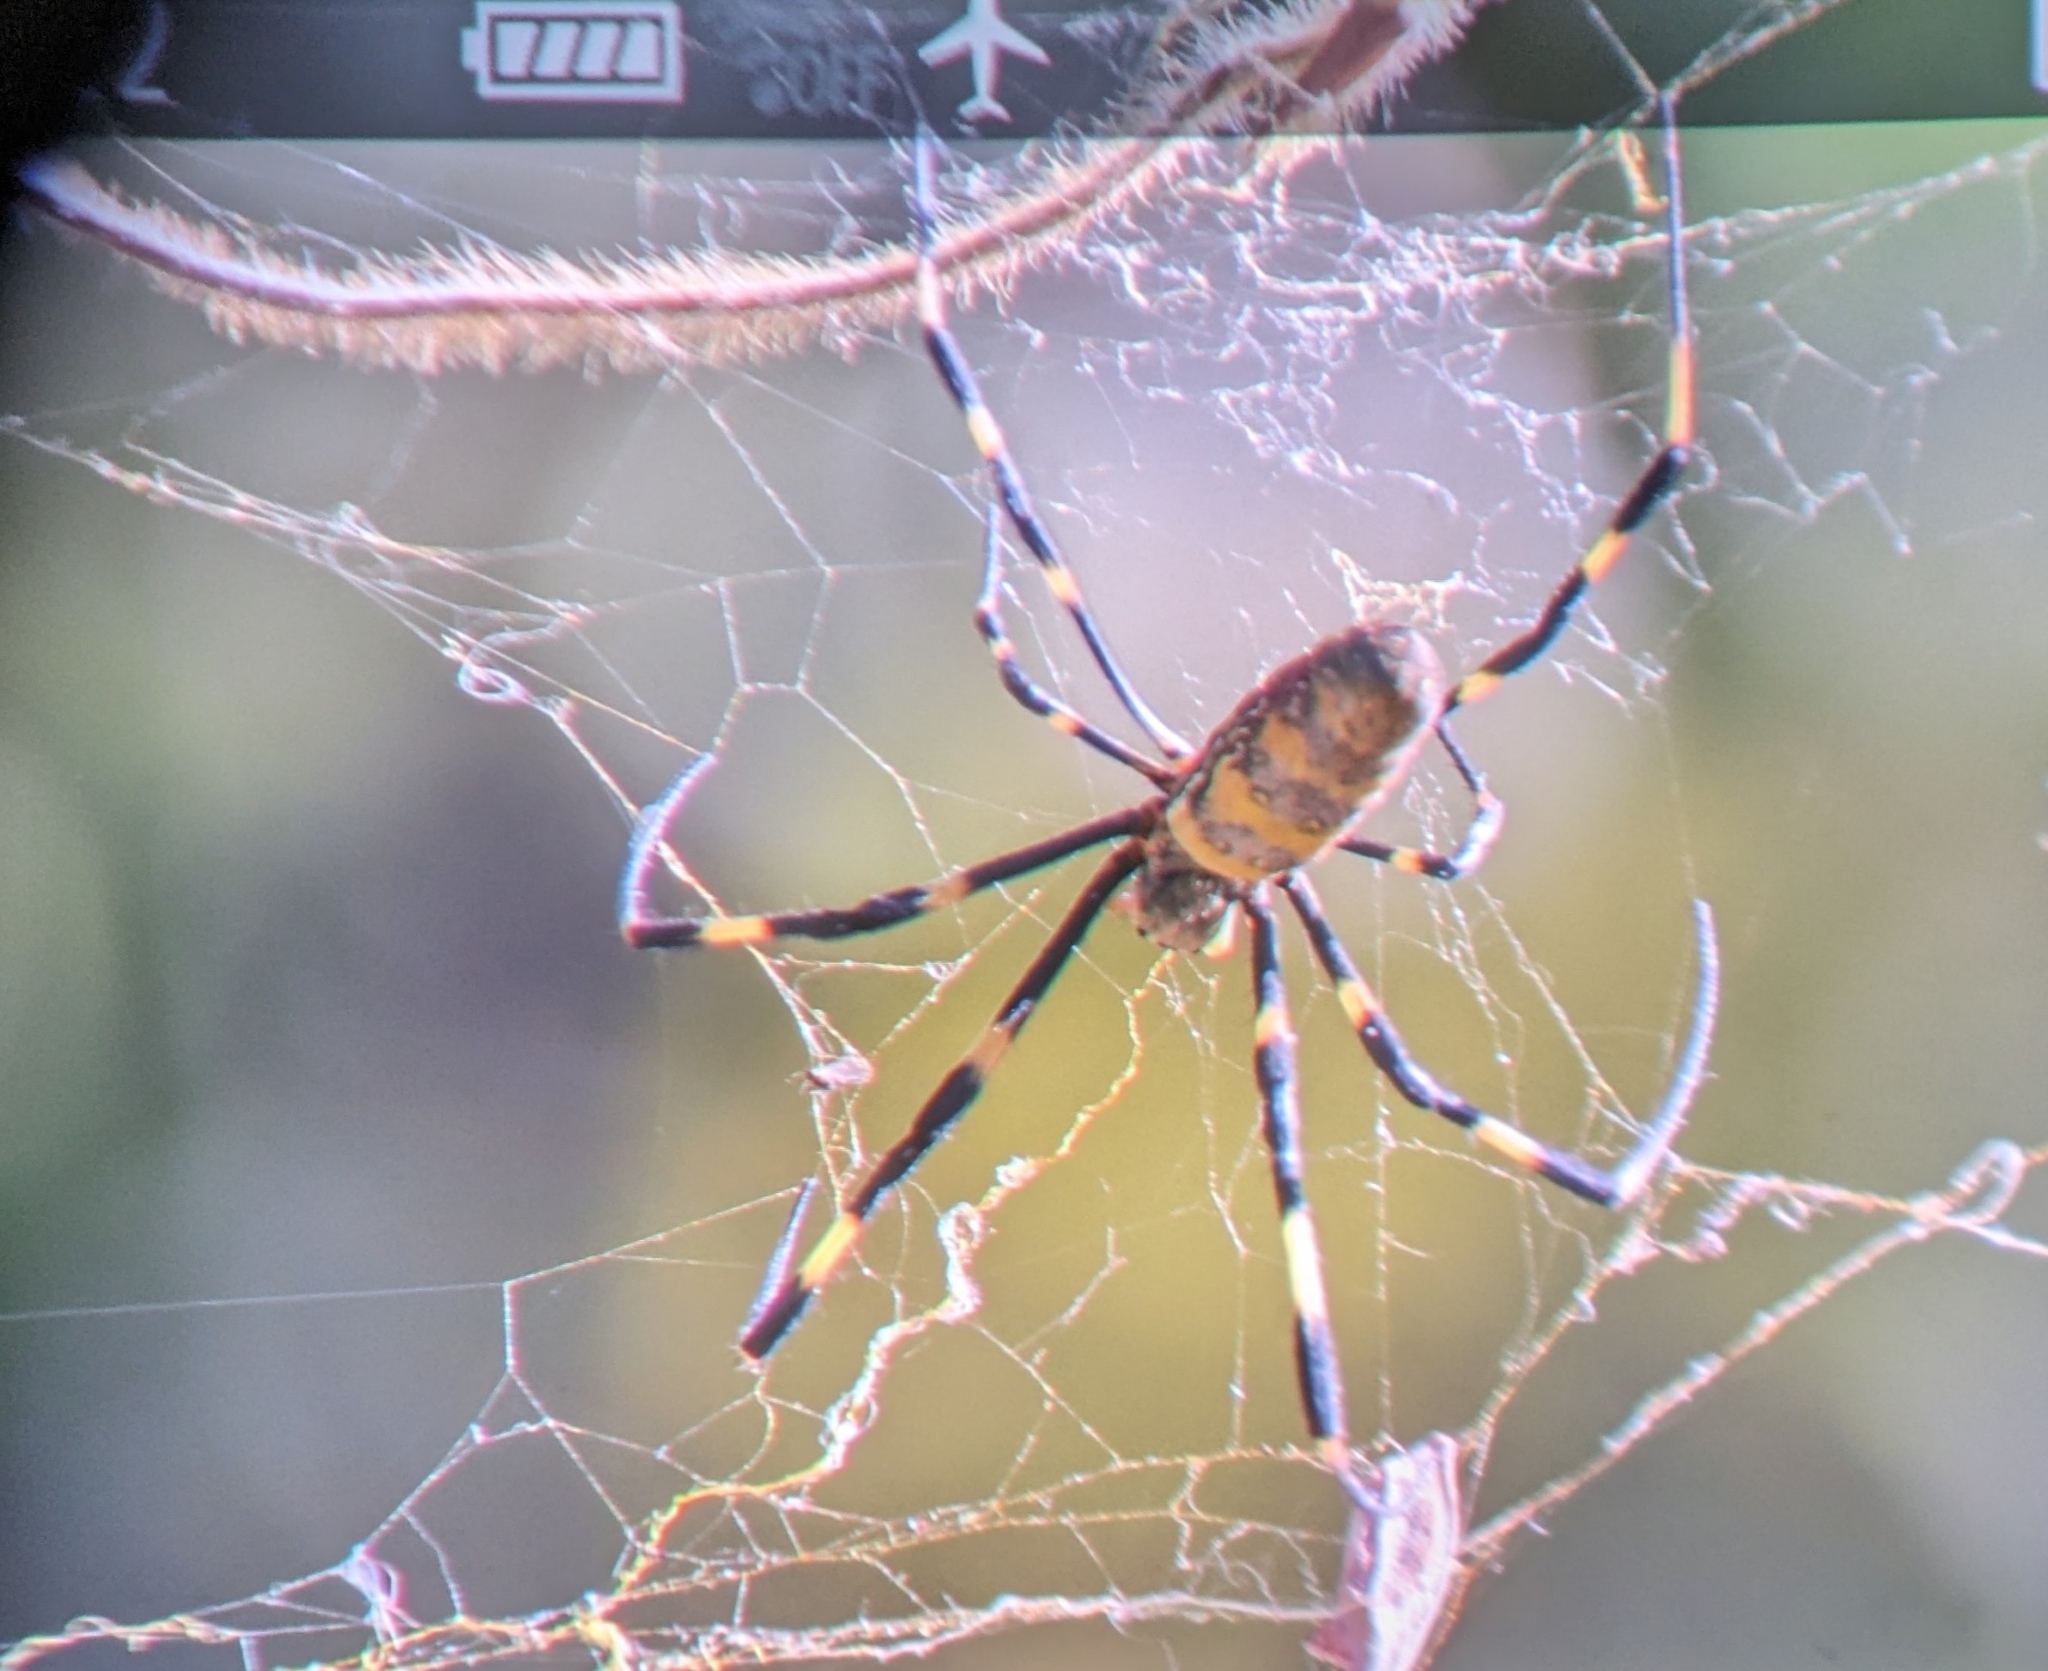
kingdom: Animalia
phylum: Arthropoda
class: Arachnida
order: Araneae
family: Araneidae
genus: Trichonephila
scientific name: Trichonephila clavata
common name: Jorō spider
